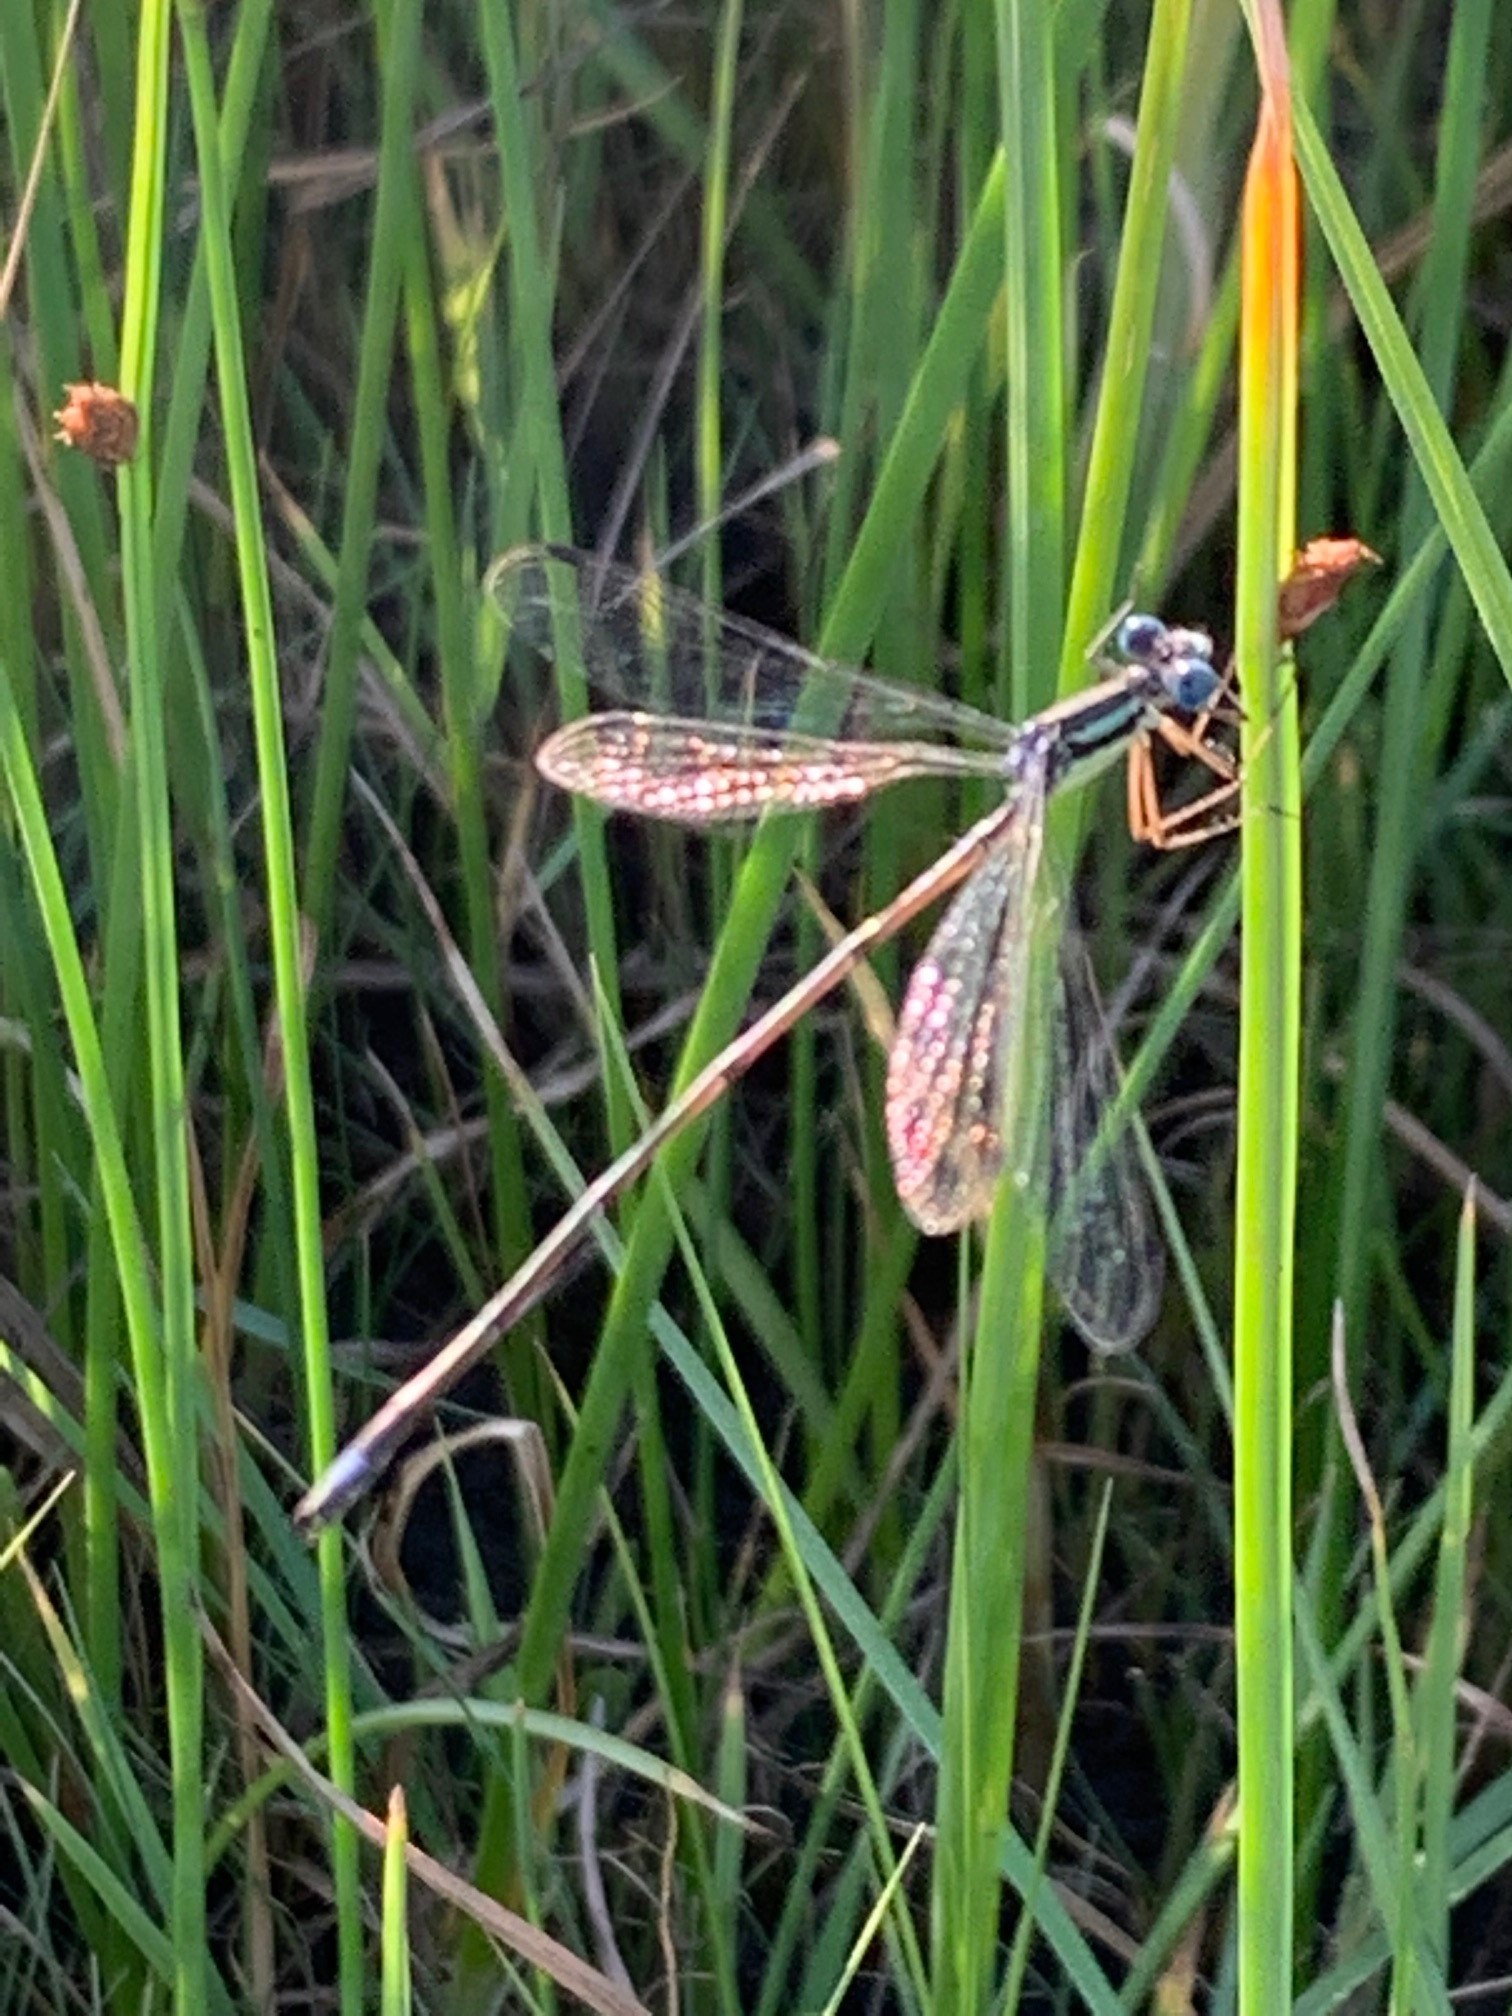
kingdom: Animalia
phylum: Arthropoda
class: Insecta
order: Odonata
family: Lestidae
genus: Lestes
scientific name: Lestes rectangularis
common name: Slender spreadwing
